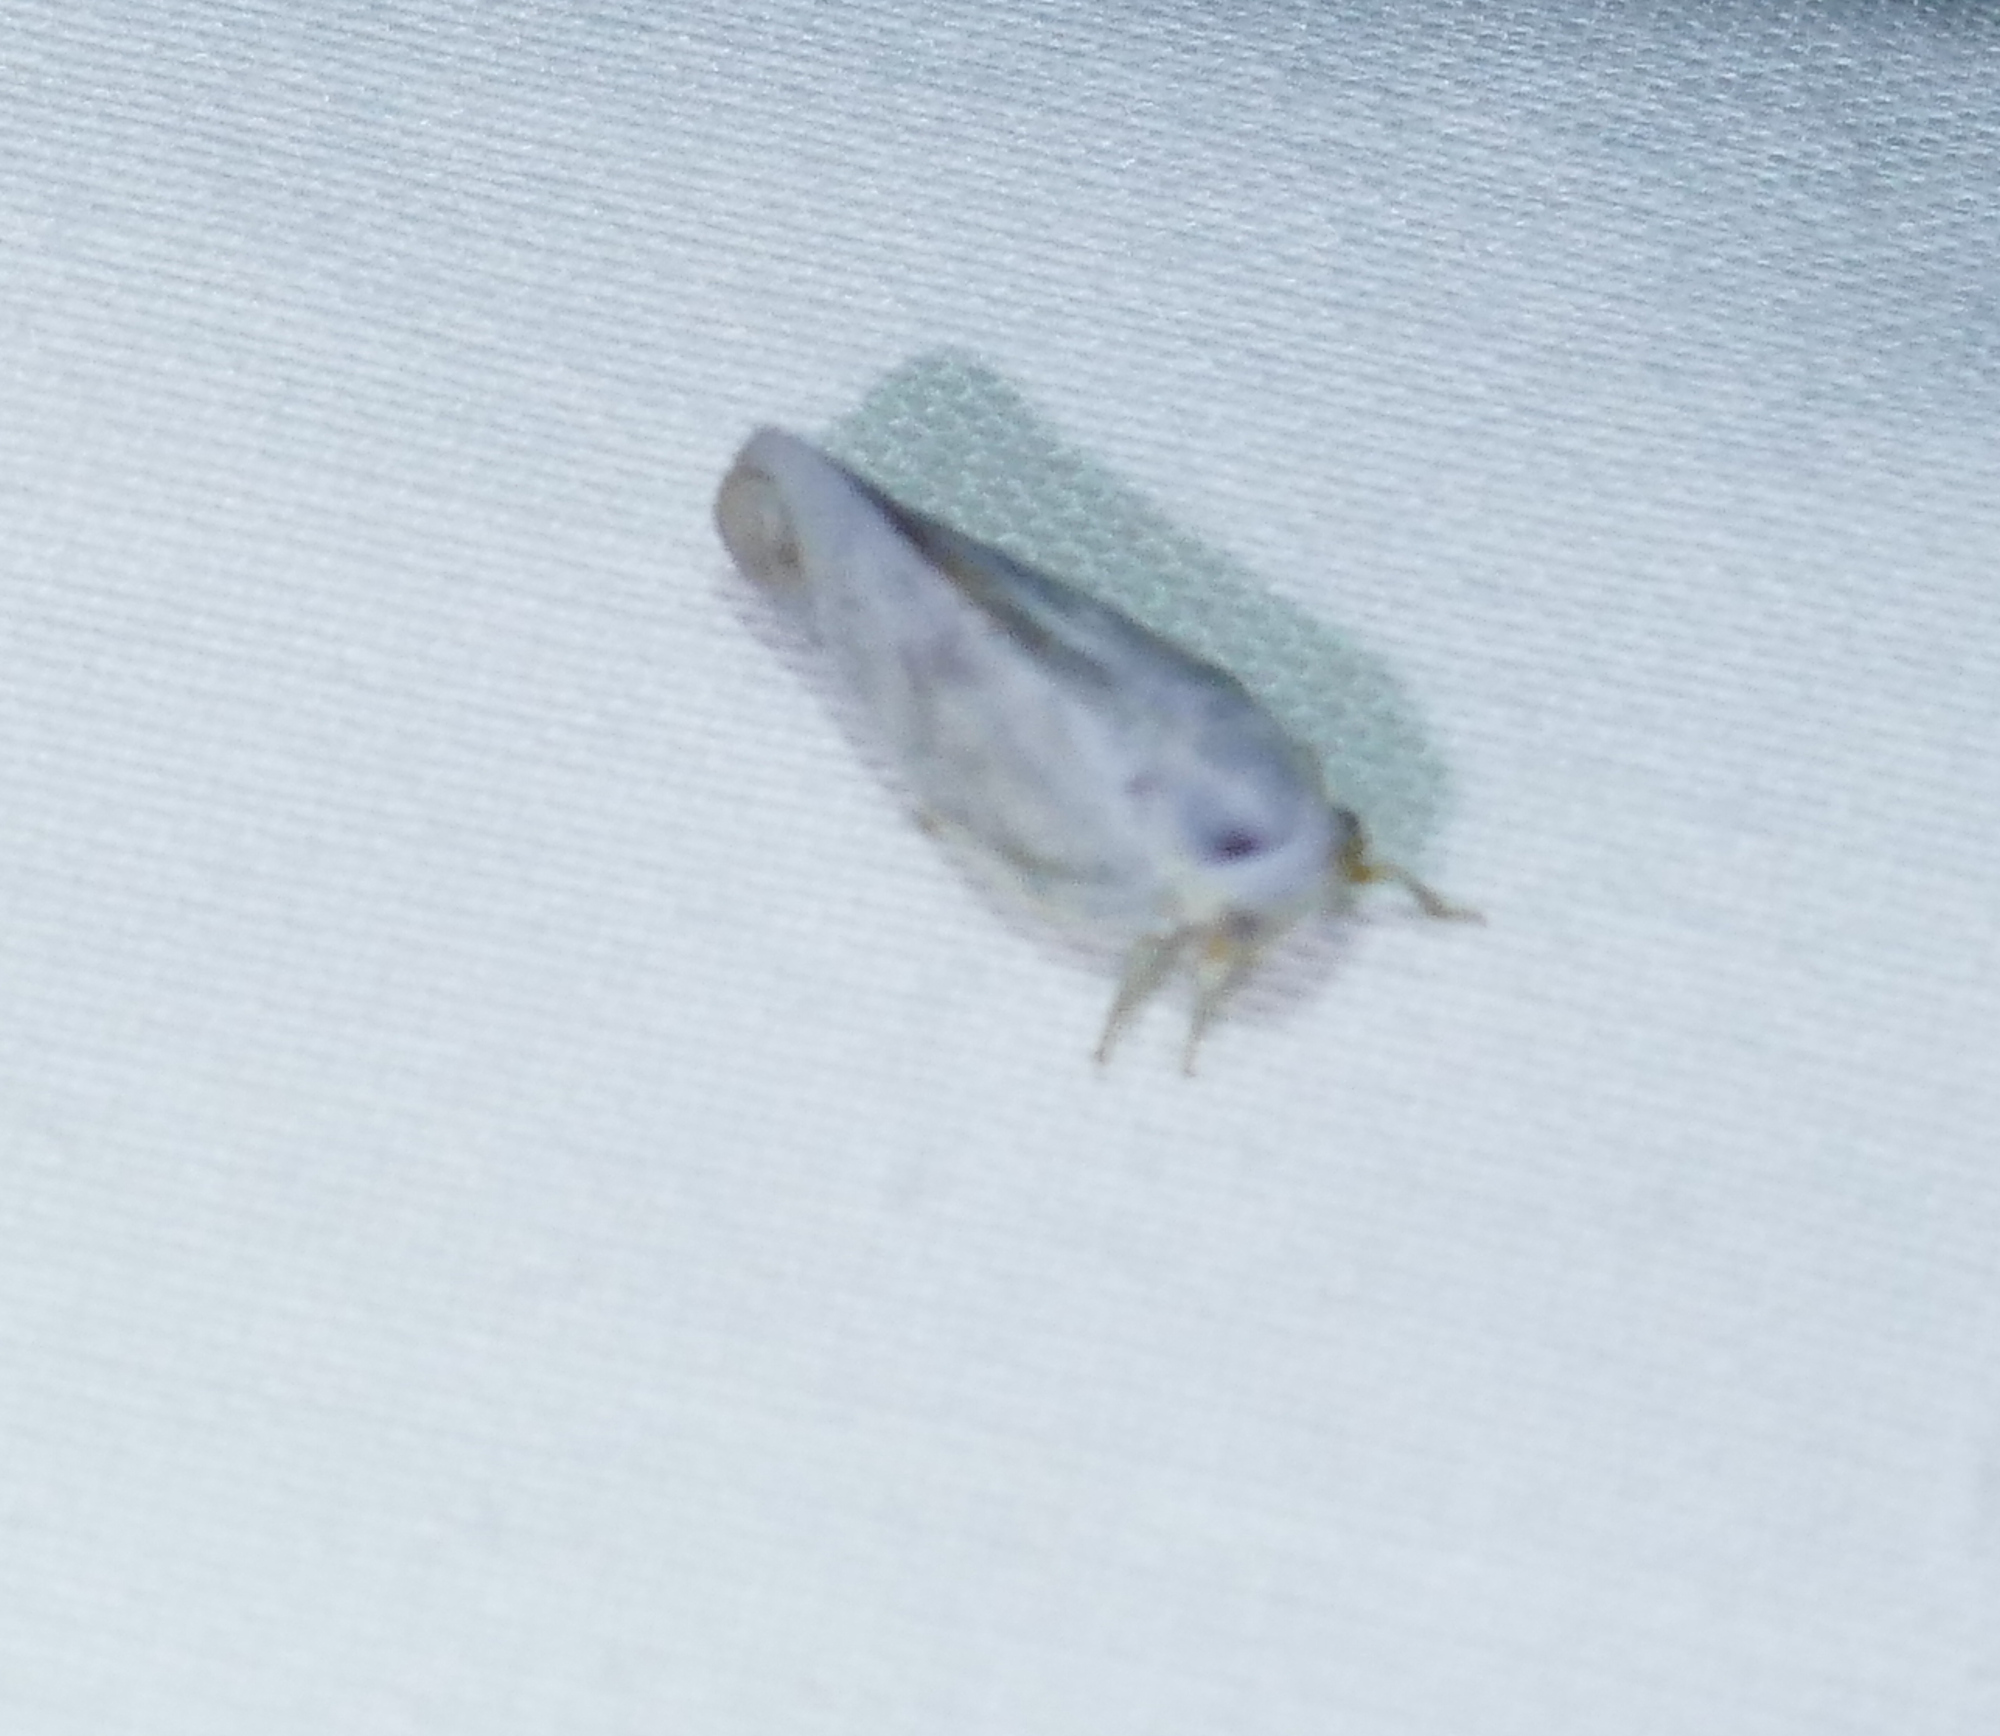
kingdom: Animalia
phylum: Arthropoda
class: Insecta
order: Hemiptera
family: Flatidae
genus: Flatormenis
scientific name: Flatormenis saucia
